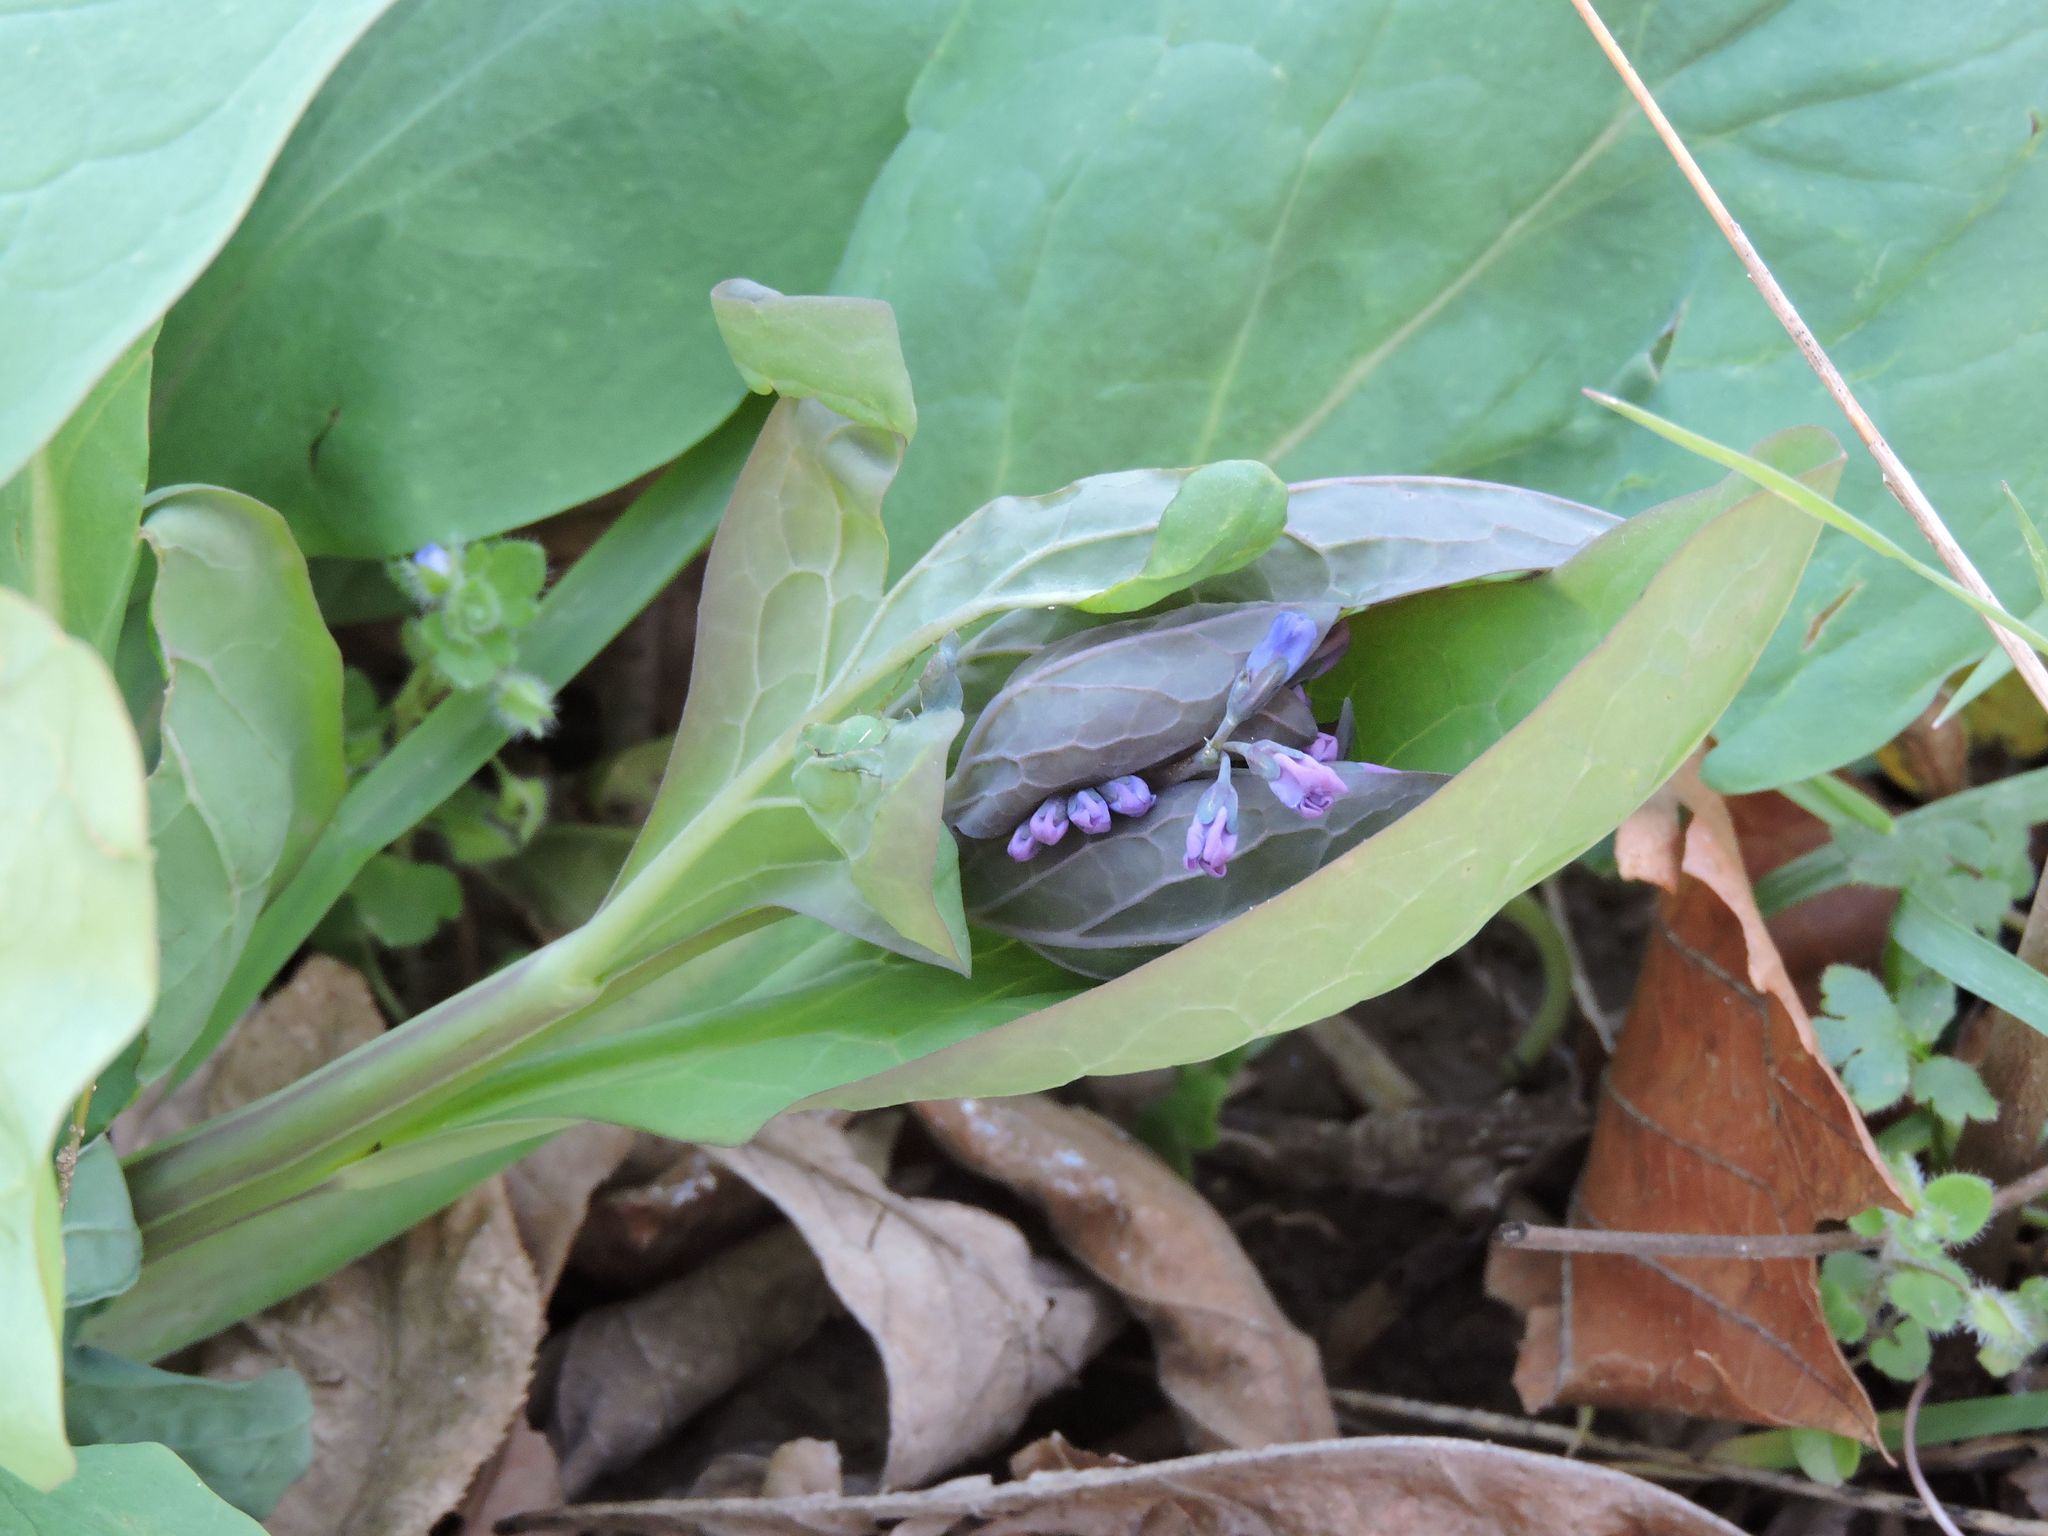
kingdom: Plantae
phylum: Tracheophyta
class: Magnoliopsida
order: Boraginales
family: Boraginaceae
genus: Mertensia
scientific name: Mertensia virginica
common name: Virginia bluebells
